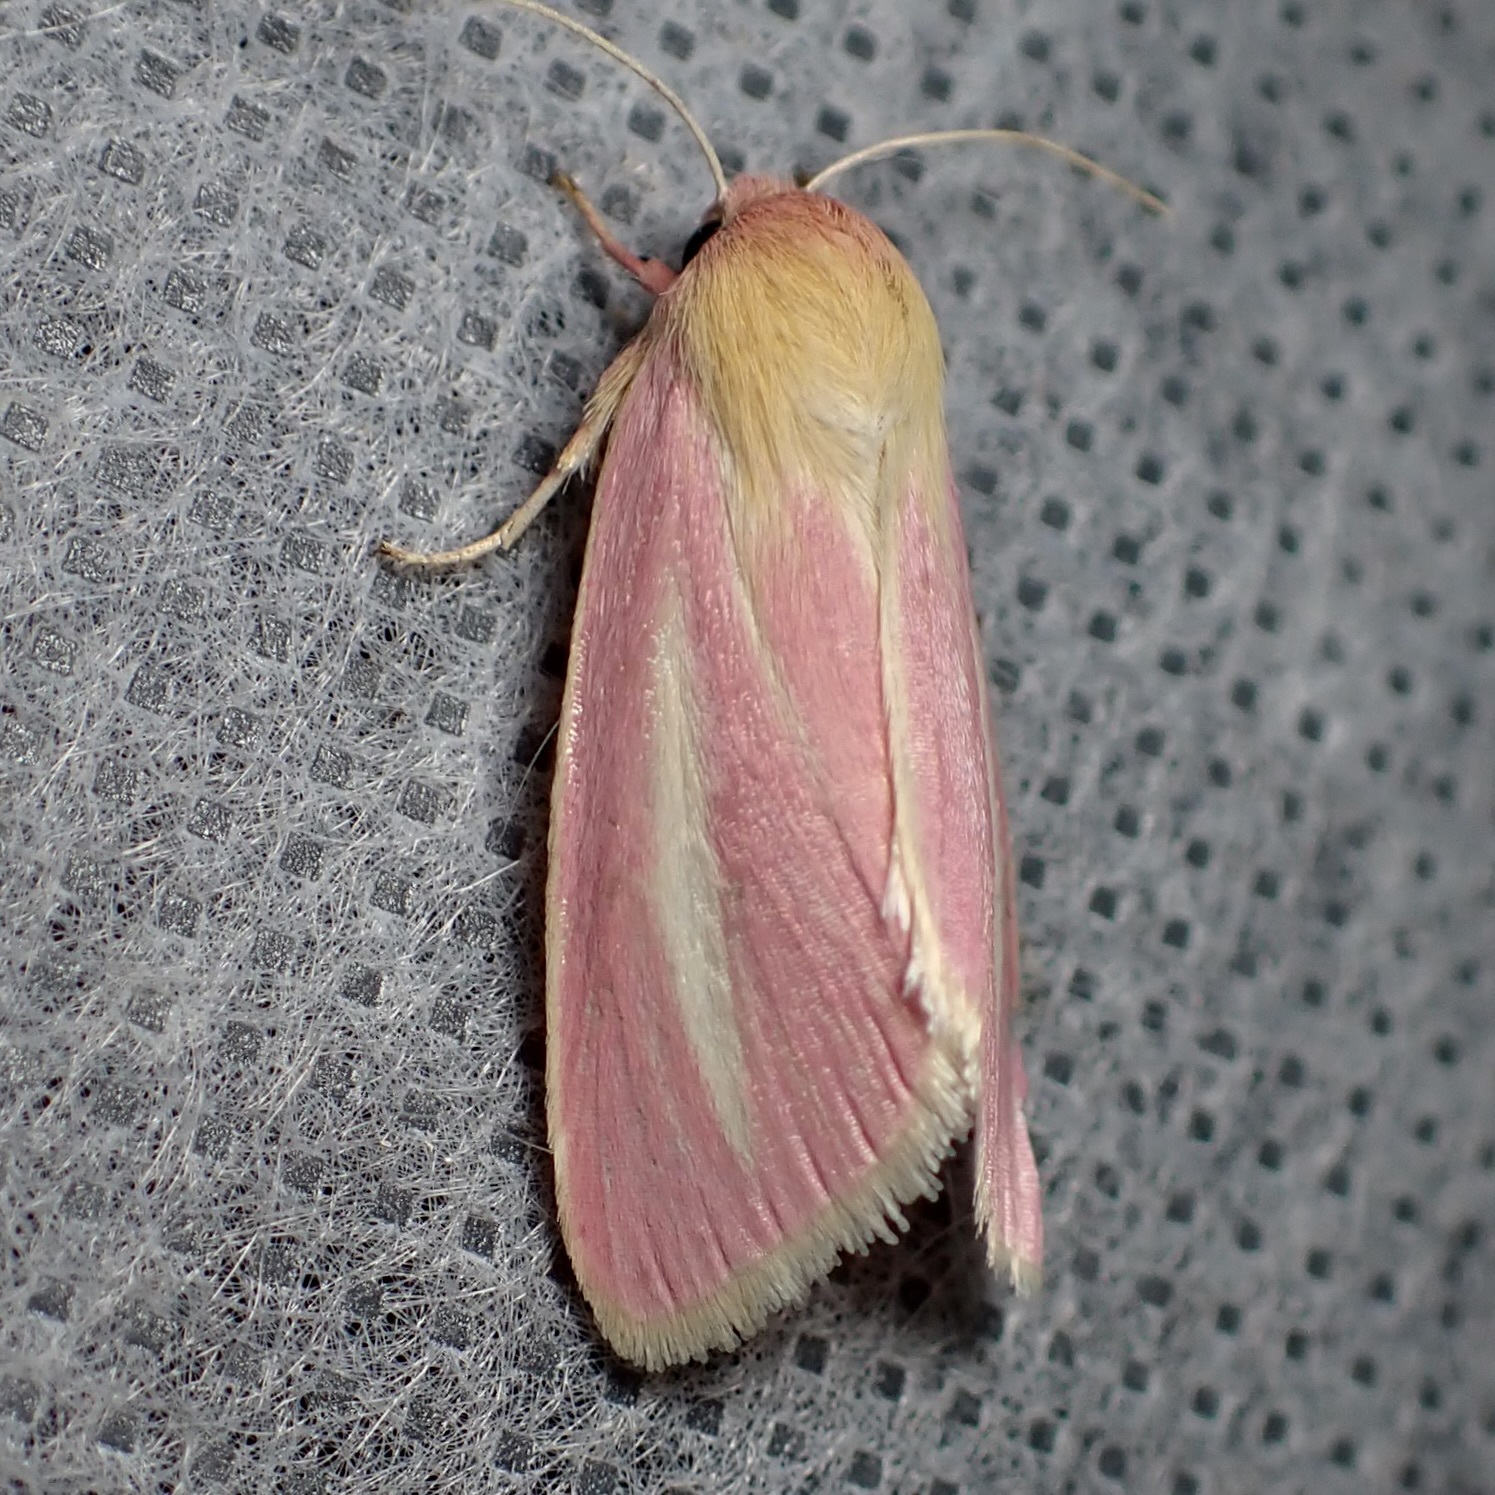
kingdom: Animalia
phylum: Arthropoda
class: Insecta
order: Lepidoptera
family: Noctuidae
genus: Heliocheilus
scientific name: Heliocheilus julia
